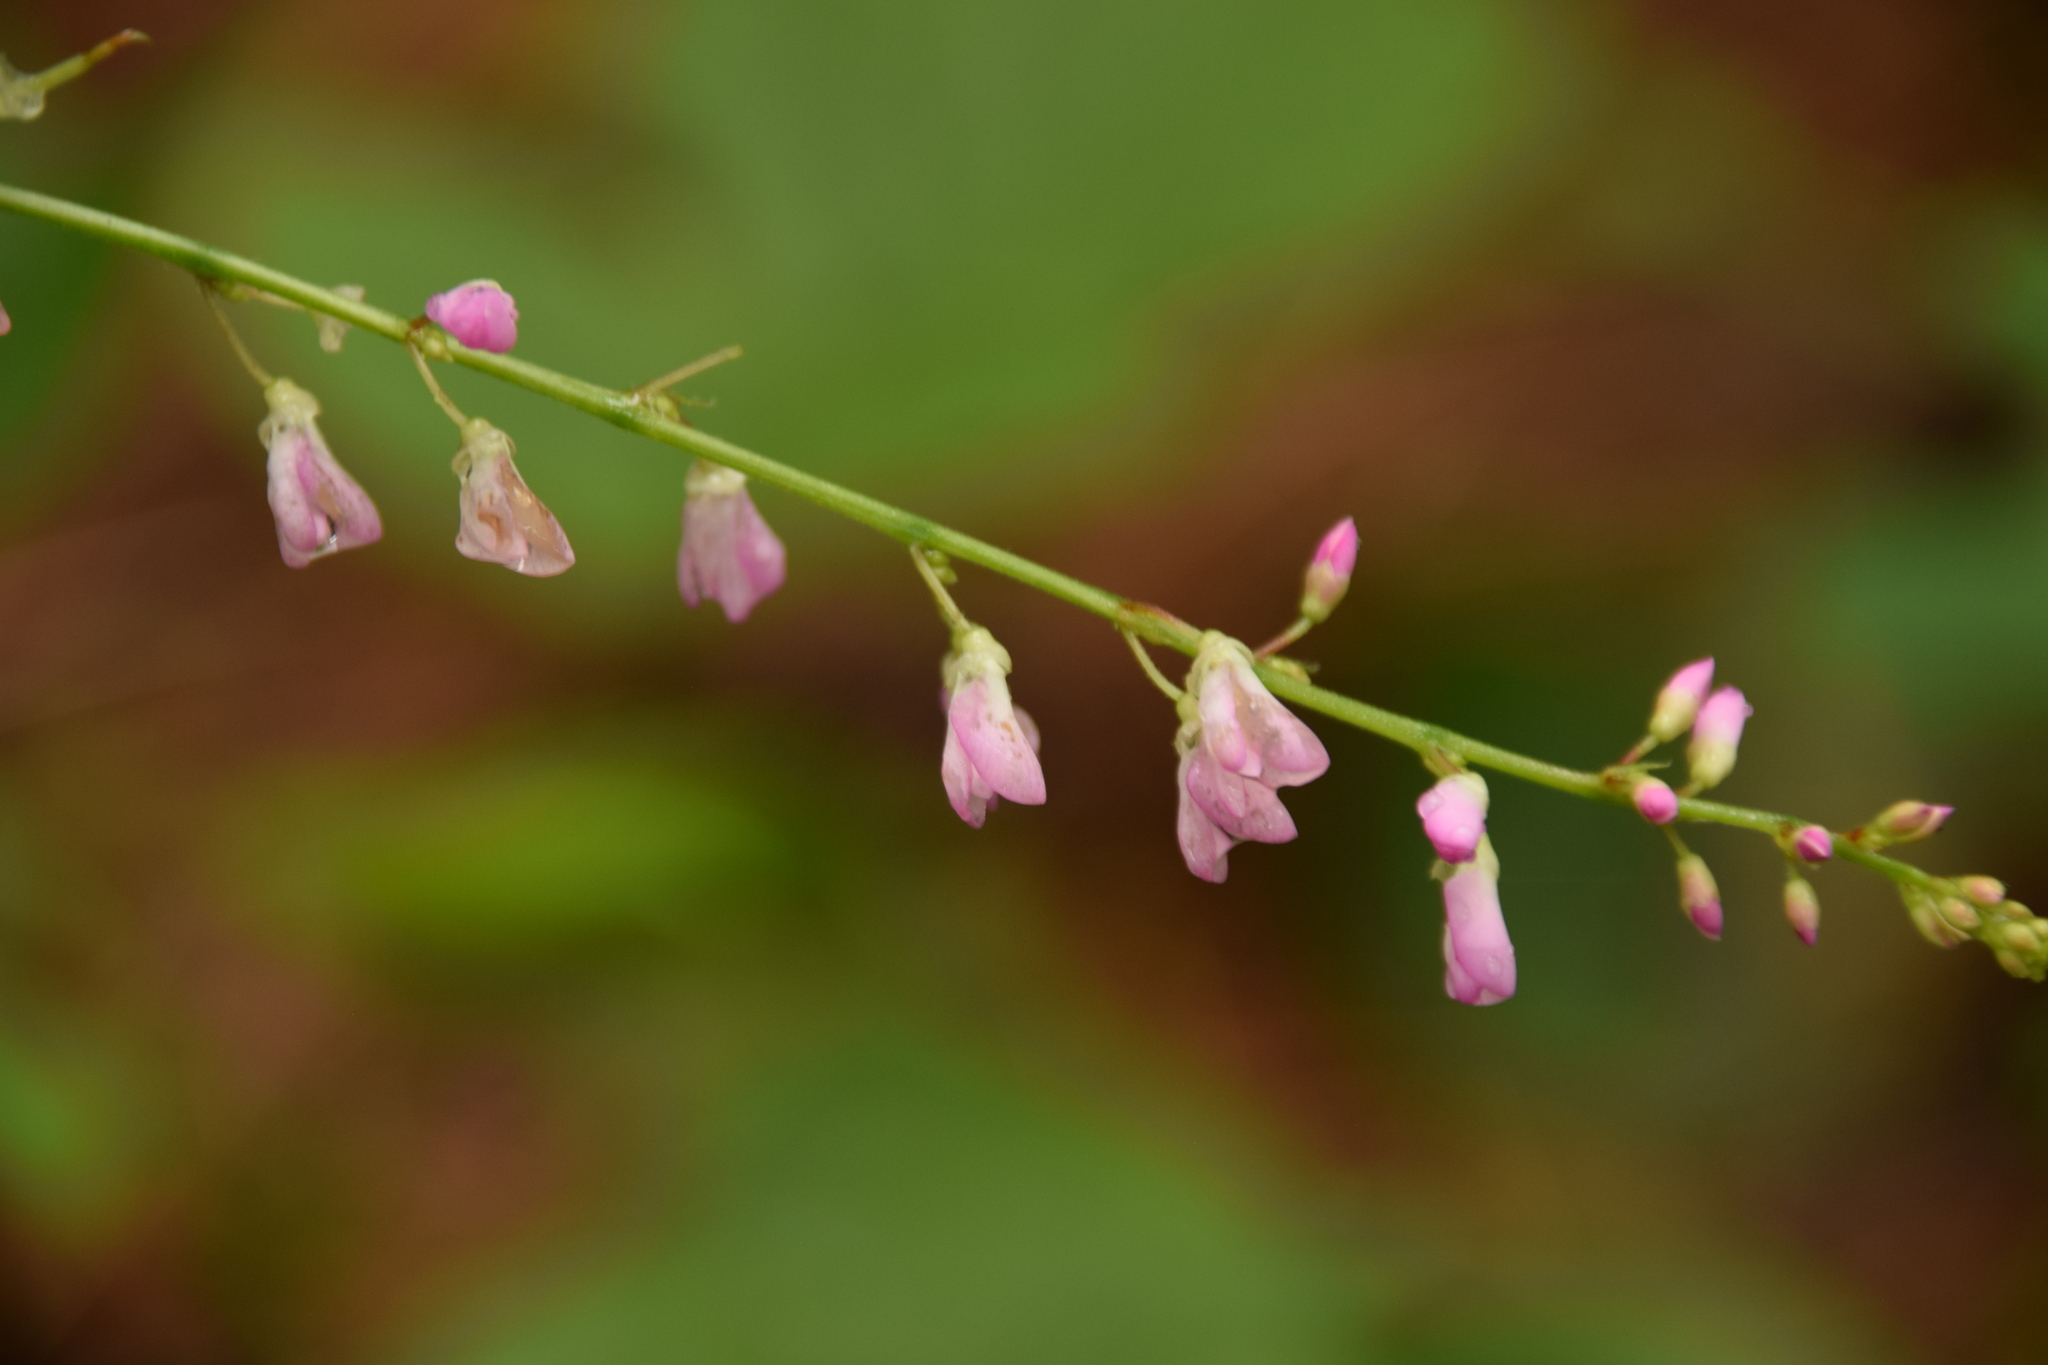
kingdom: Plantae
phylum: Tracheophyta
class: Magnoliopsida
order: Fabales
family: Fabaceae
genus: Hylodesmum
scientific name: Hylodesmum glutinosum
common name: Clustered-leaved tick-trefoil
